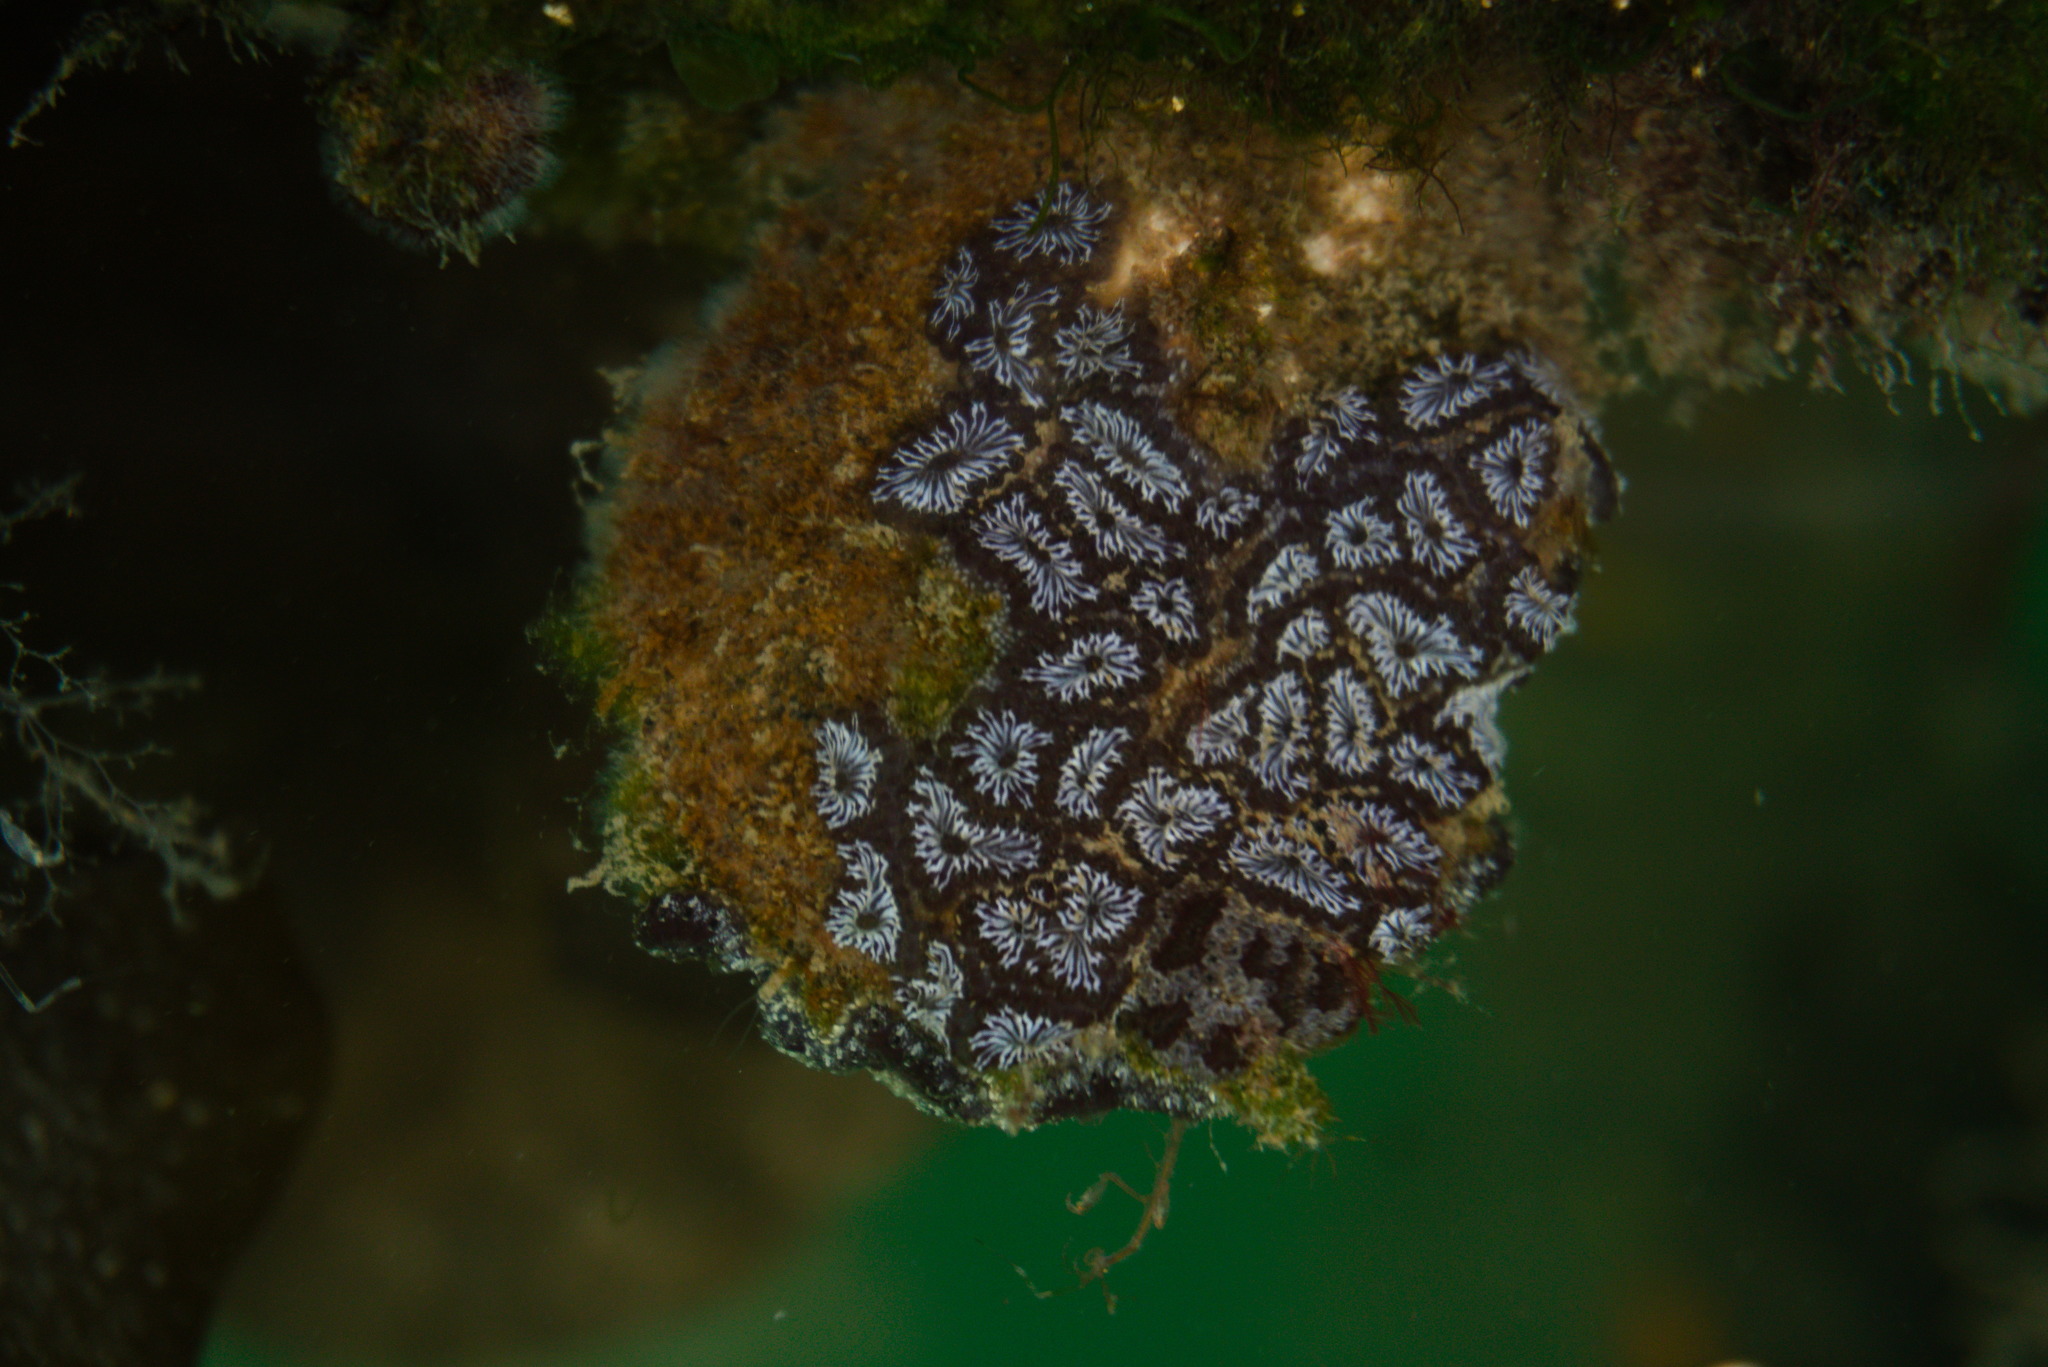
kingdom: Animalia
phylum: Chordata
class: Ascidiacea
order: Stolidobranchia
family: Styelidae
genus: Botryllus
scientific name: Botryllus schlosseri
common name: Golden star tunicate
